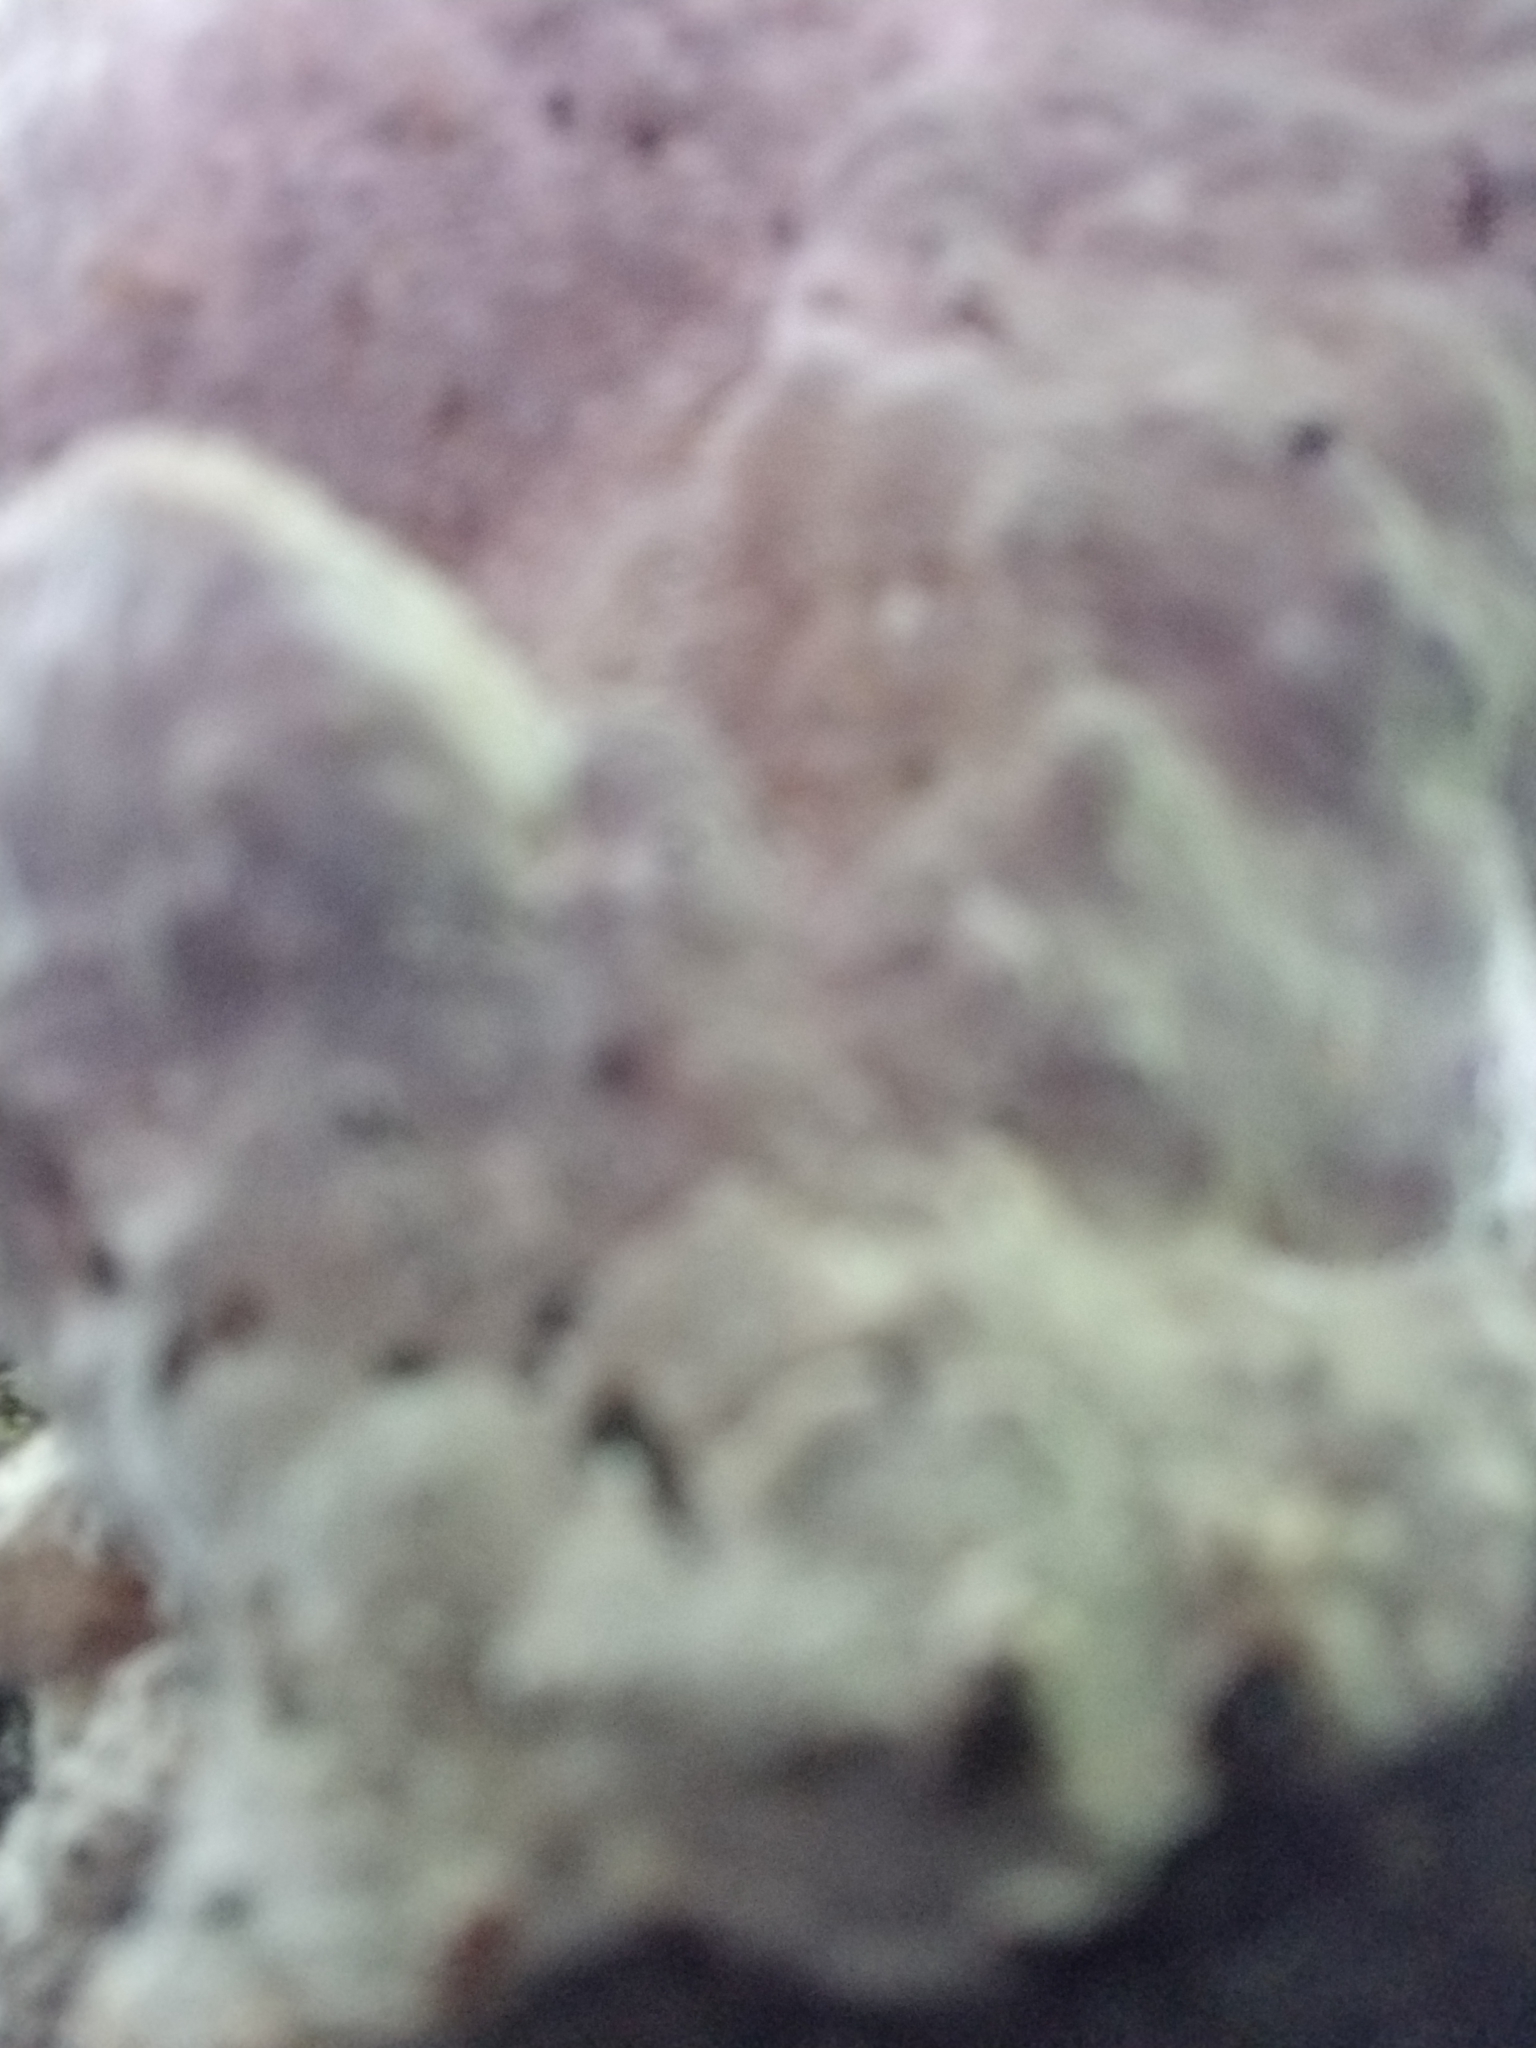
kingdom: Fungi
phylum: Basidiomycota
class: Agaricomycetes
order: Hymenochaetales
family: Hymenochaetaceae
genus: Pseudoinonotus
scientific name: Pseudoinonotus dryadeus
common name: Oak bracket
